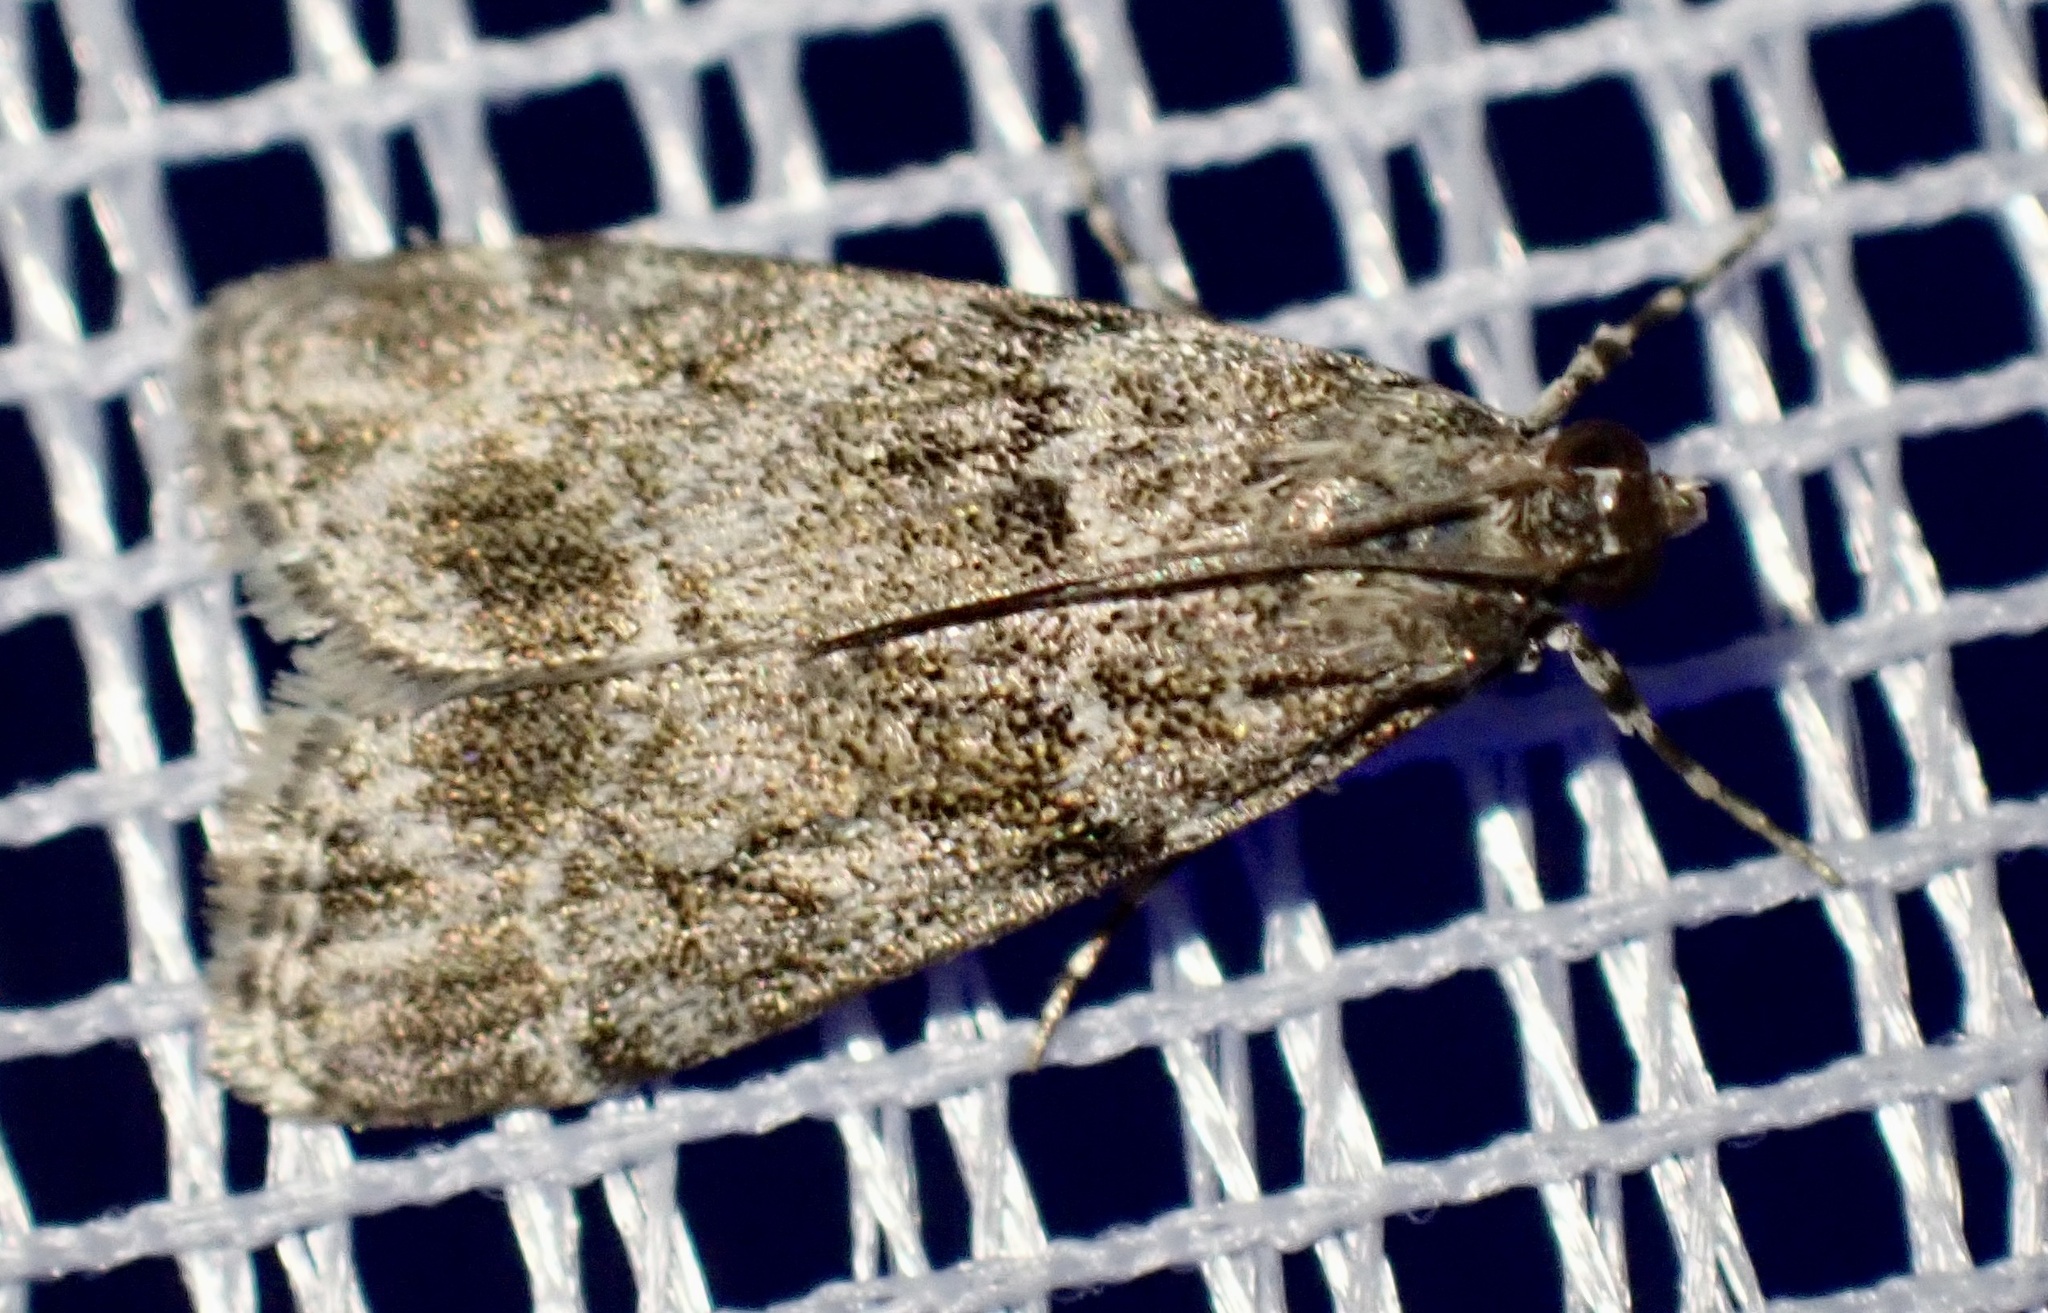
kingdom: Animalia
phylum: Arthropoda
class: Insecta
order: Lepidoptera
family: Crambidae
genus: Eudonia
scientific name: Eudonia mercurella
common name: Small grey
